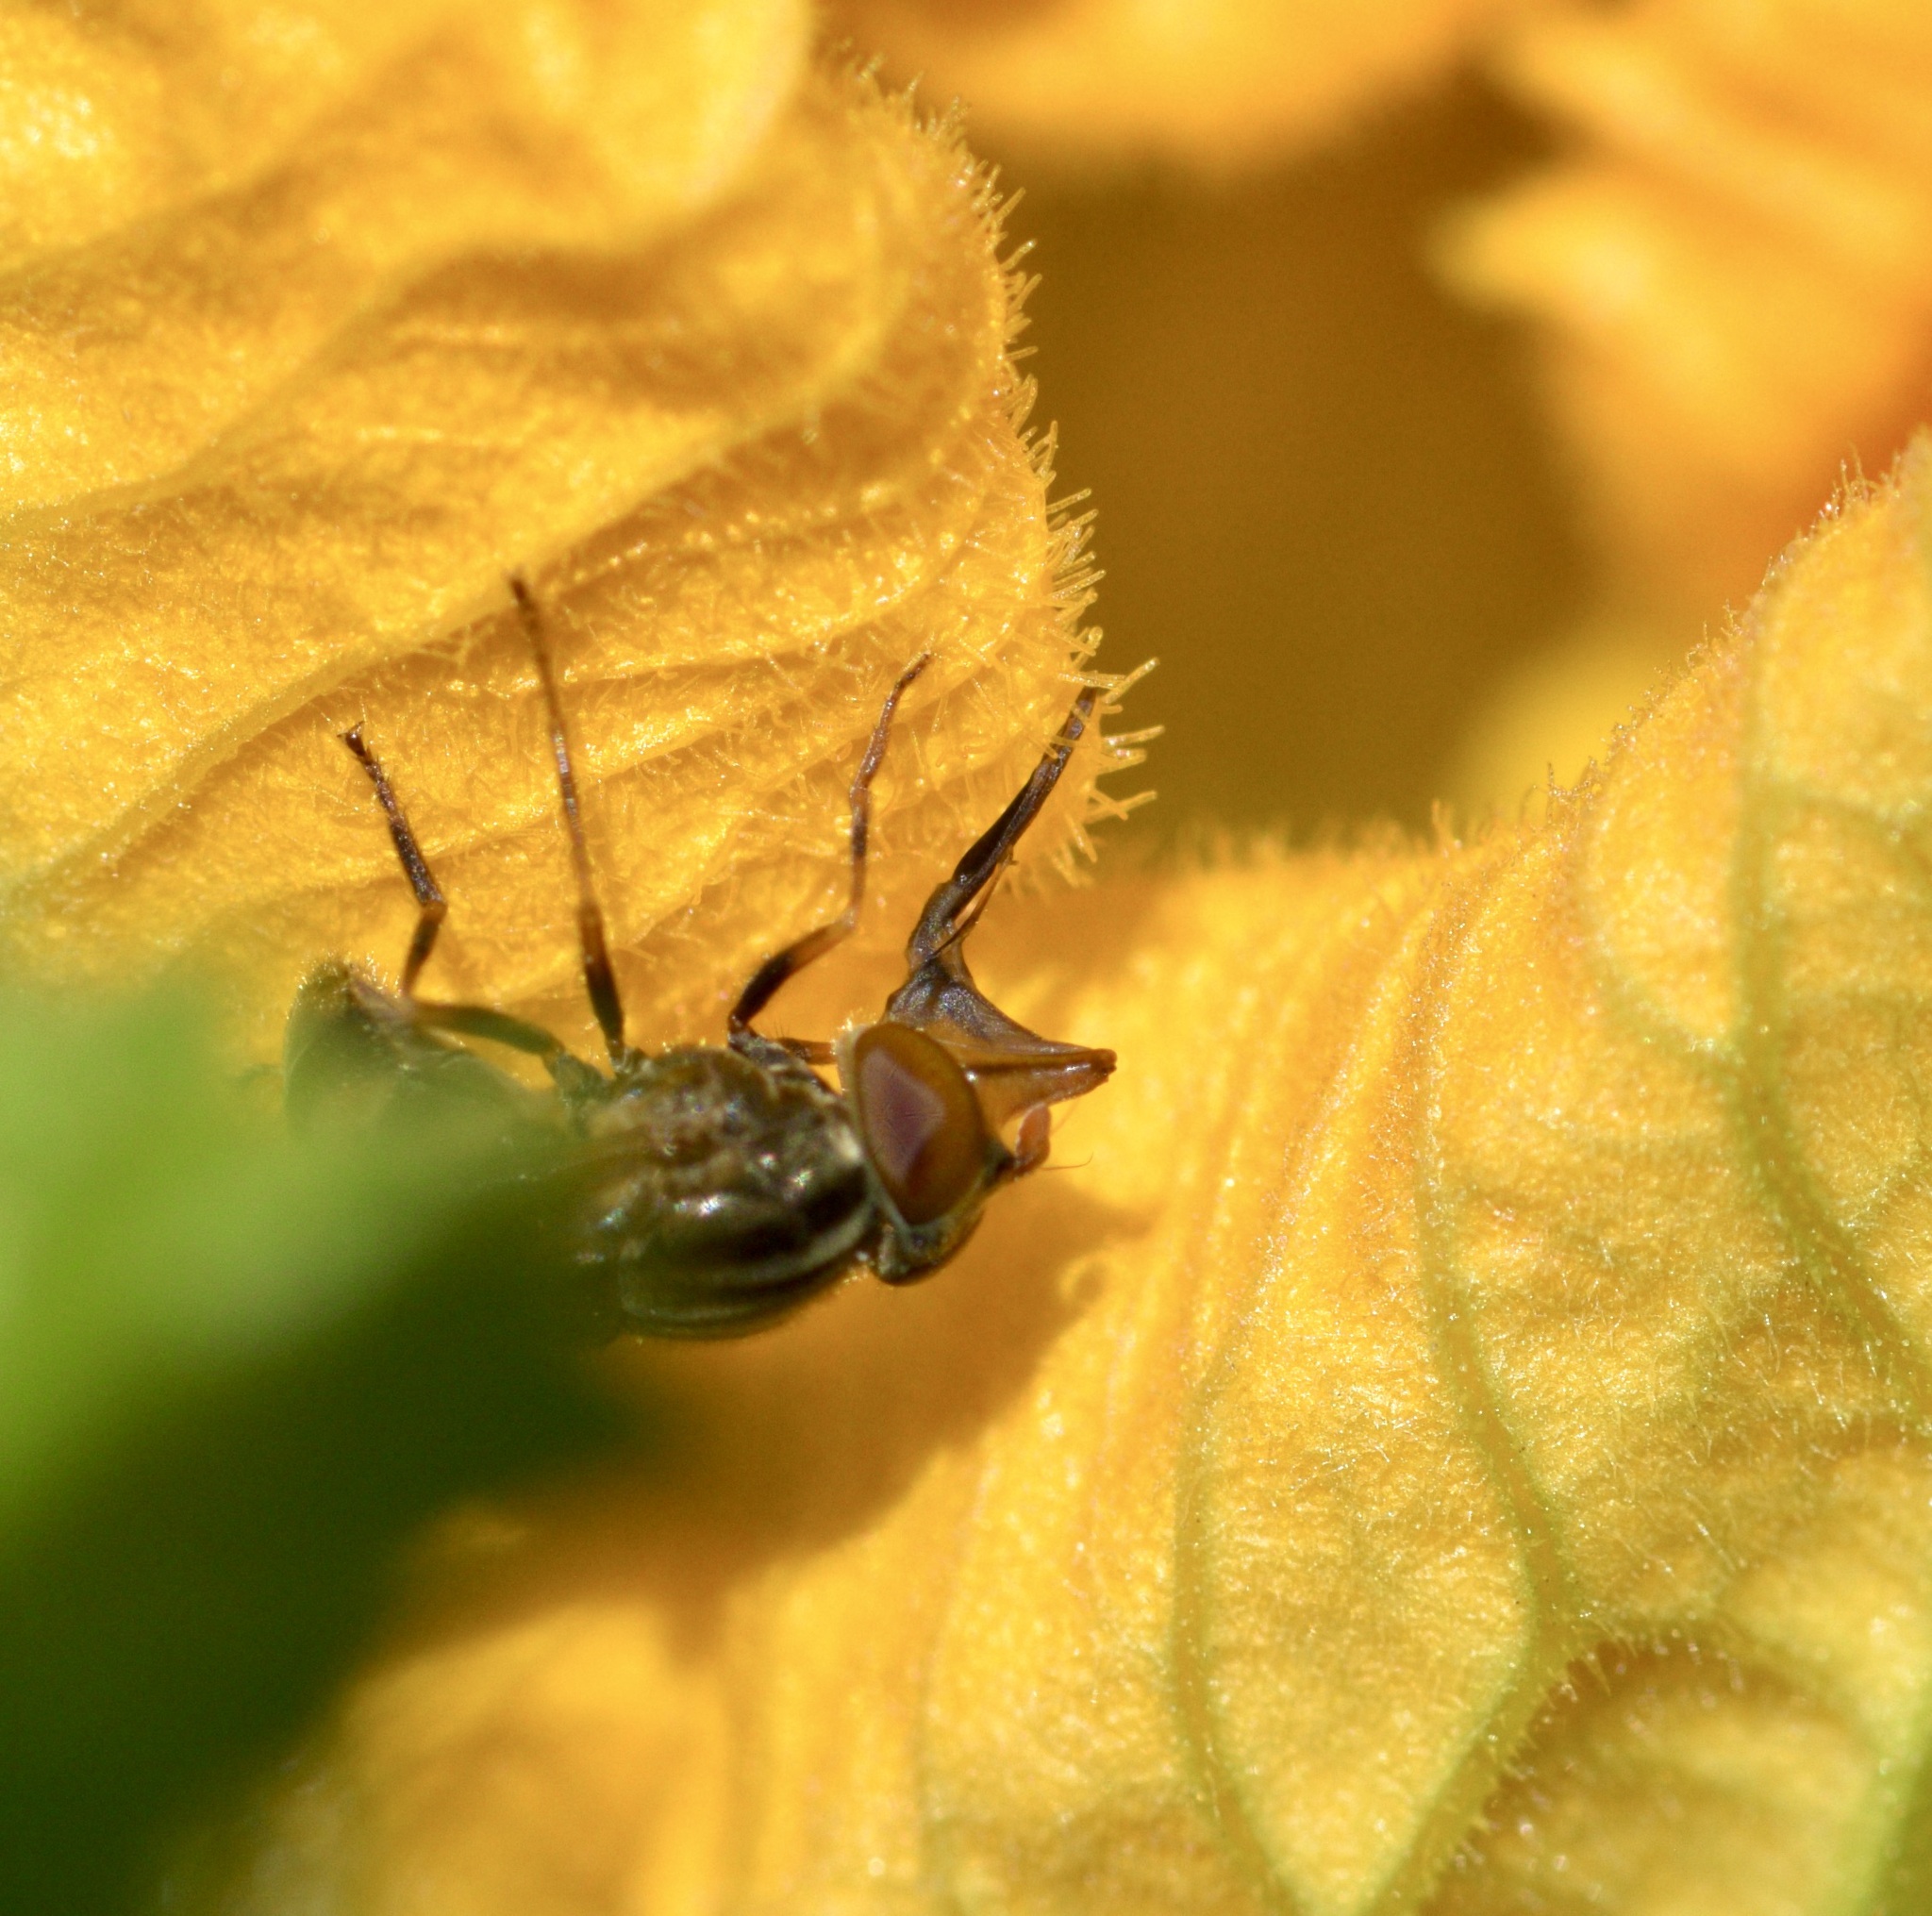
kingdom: Animalia
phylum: Arthropoda
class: Insecta
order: Diptera
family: Syrphidae
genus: Rhingia
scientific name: Rhingia nasica
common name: American snout fly
